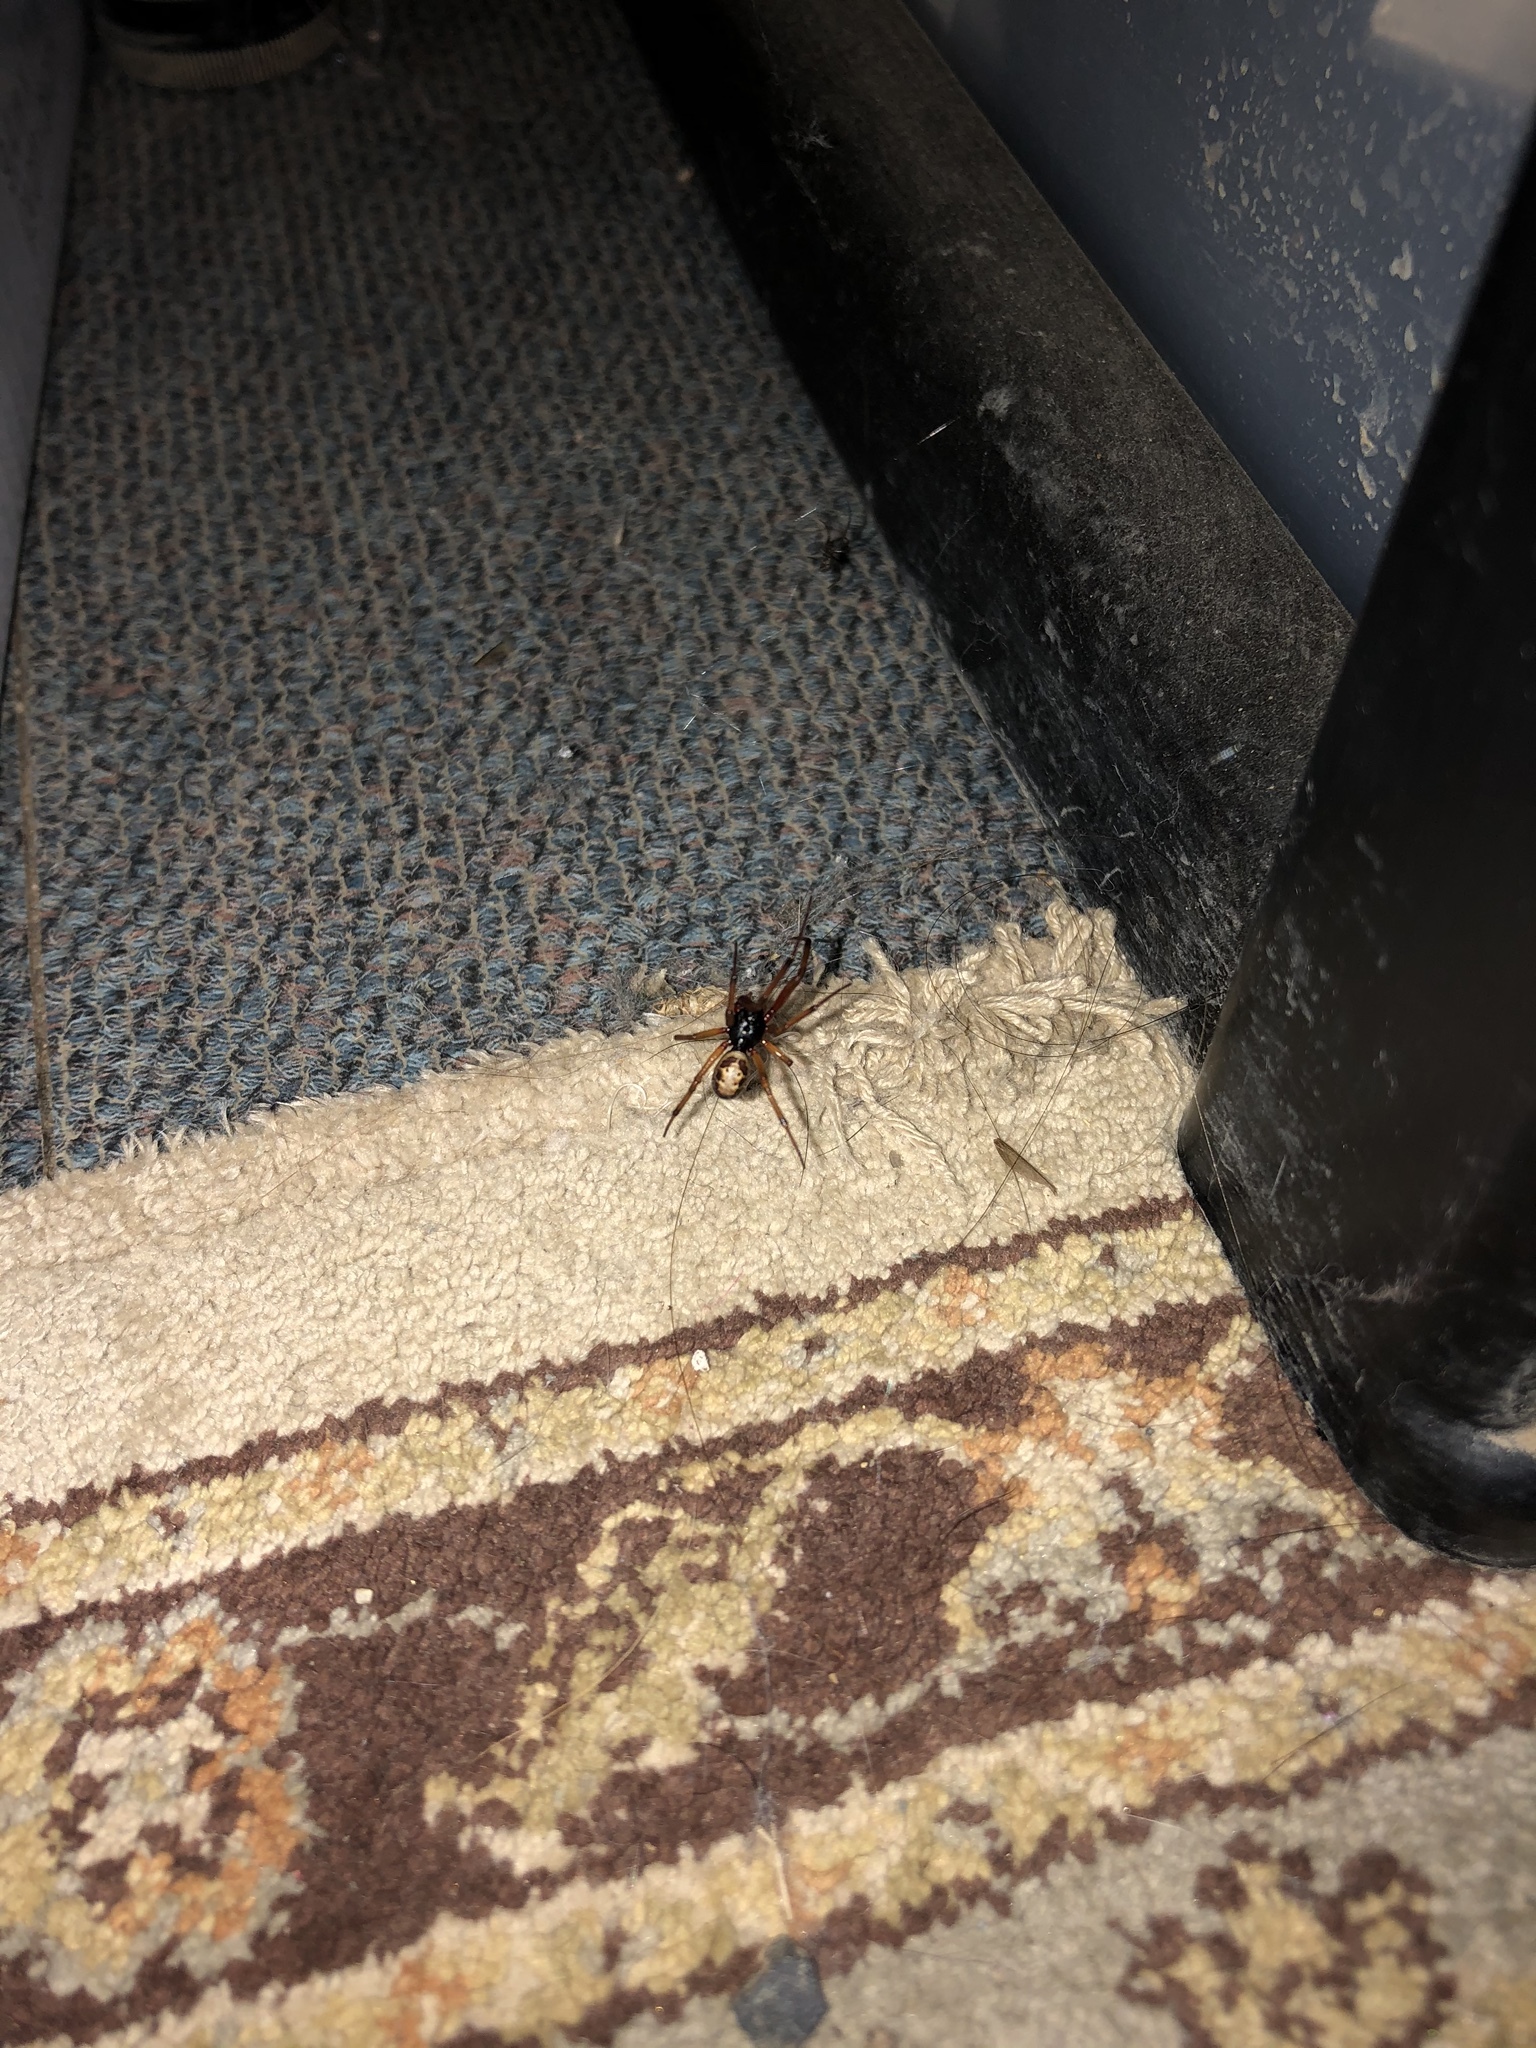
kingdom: Animalia
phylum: Arthropoda
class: Arachnida
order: Araneae
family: Theridiidae
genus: Steatoda
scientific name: Steatoda nobilis
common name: Cobweb weaver
